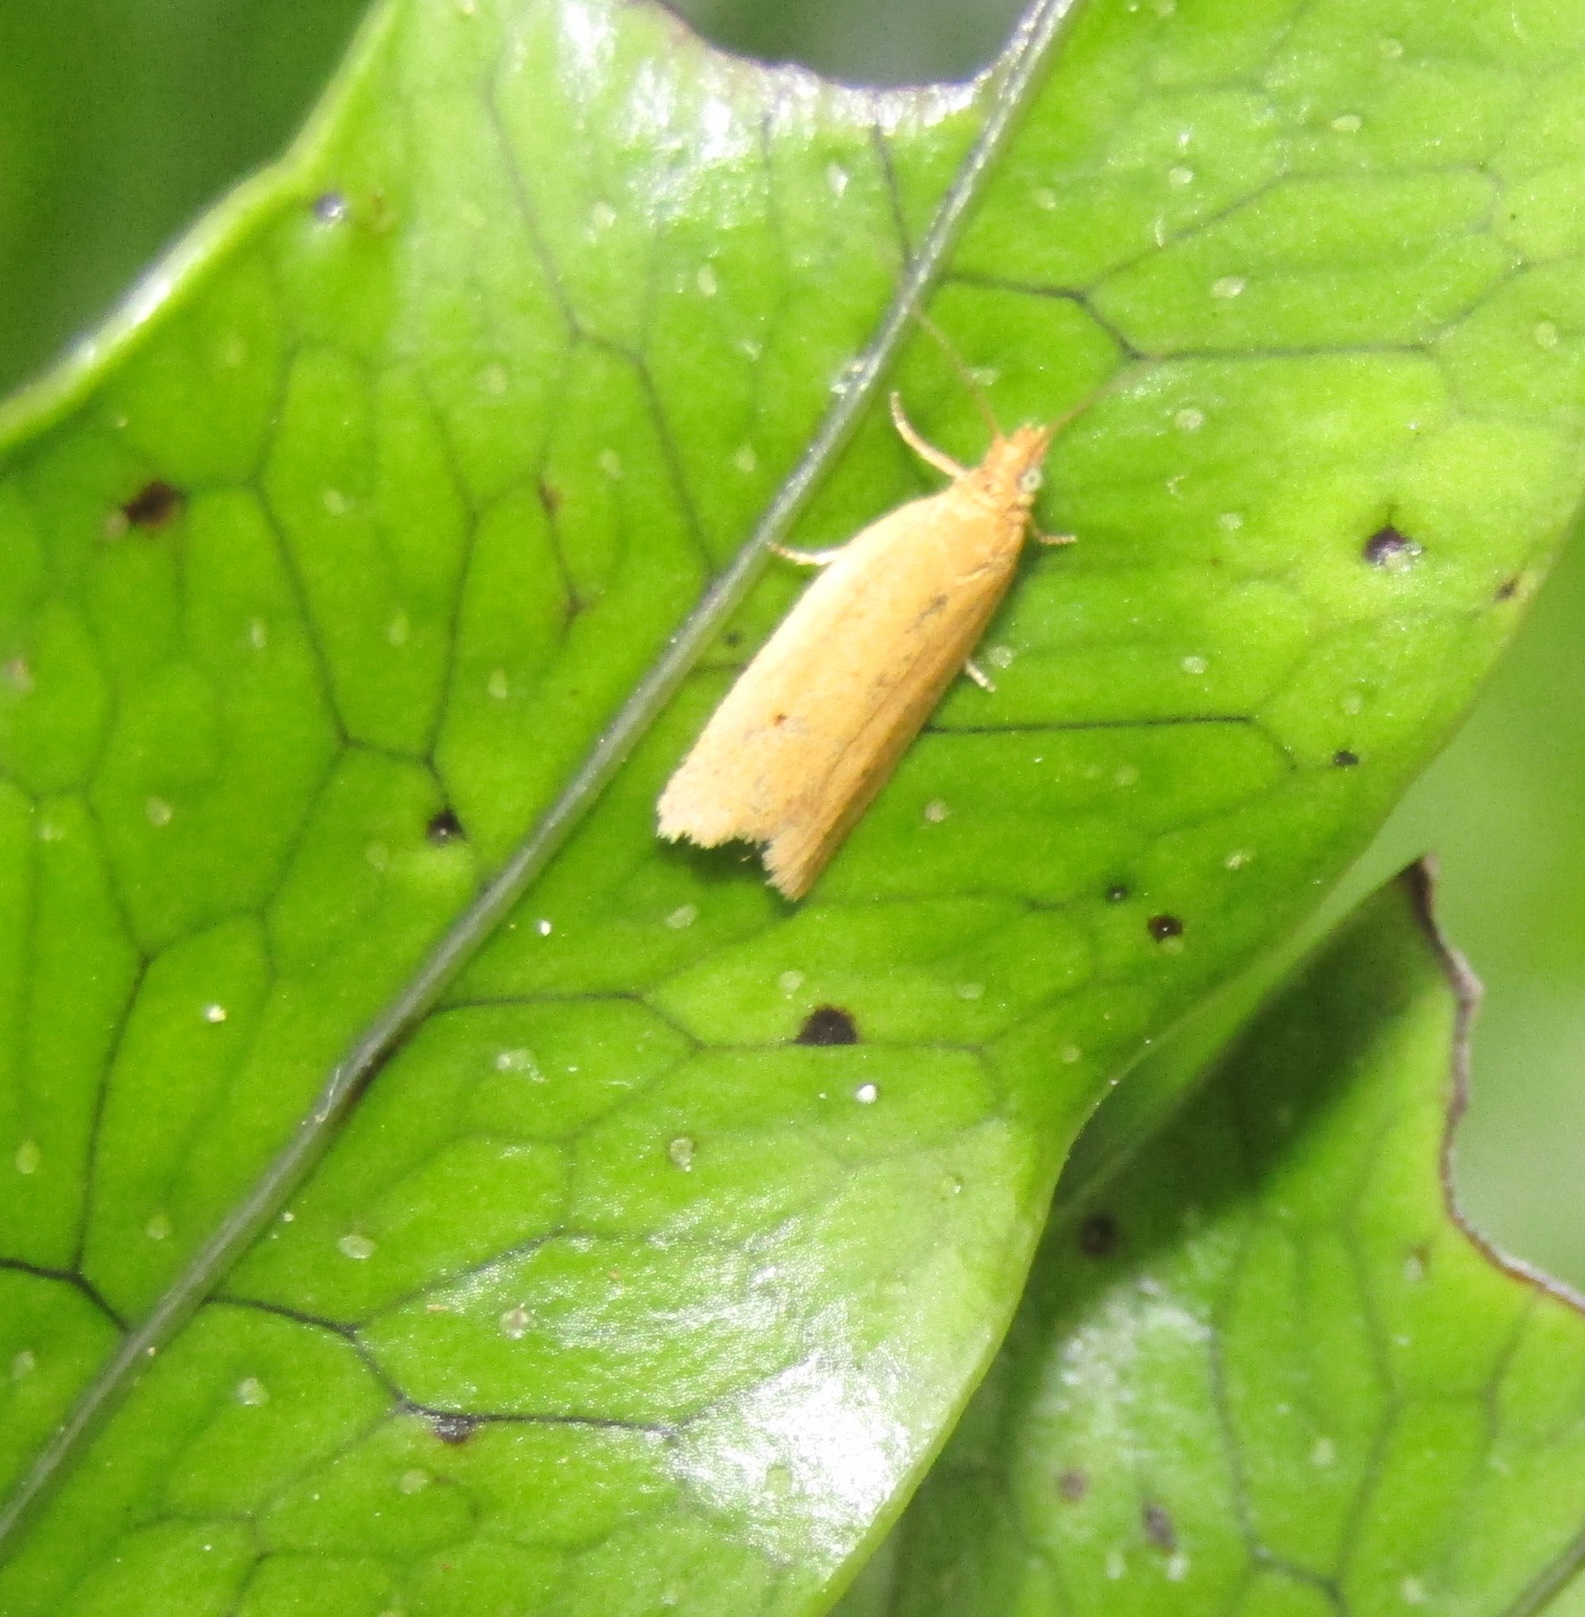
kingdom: Animalia
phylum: Arthropoda
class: Insecta
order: Lepidoptera
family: Tortricidae
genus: Epichorista
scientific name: Epichorista siriana
